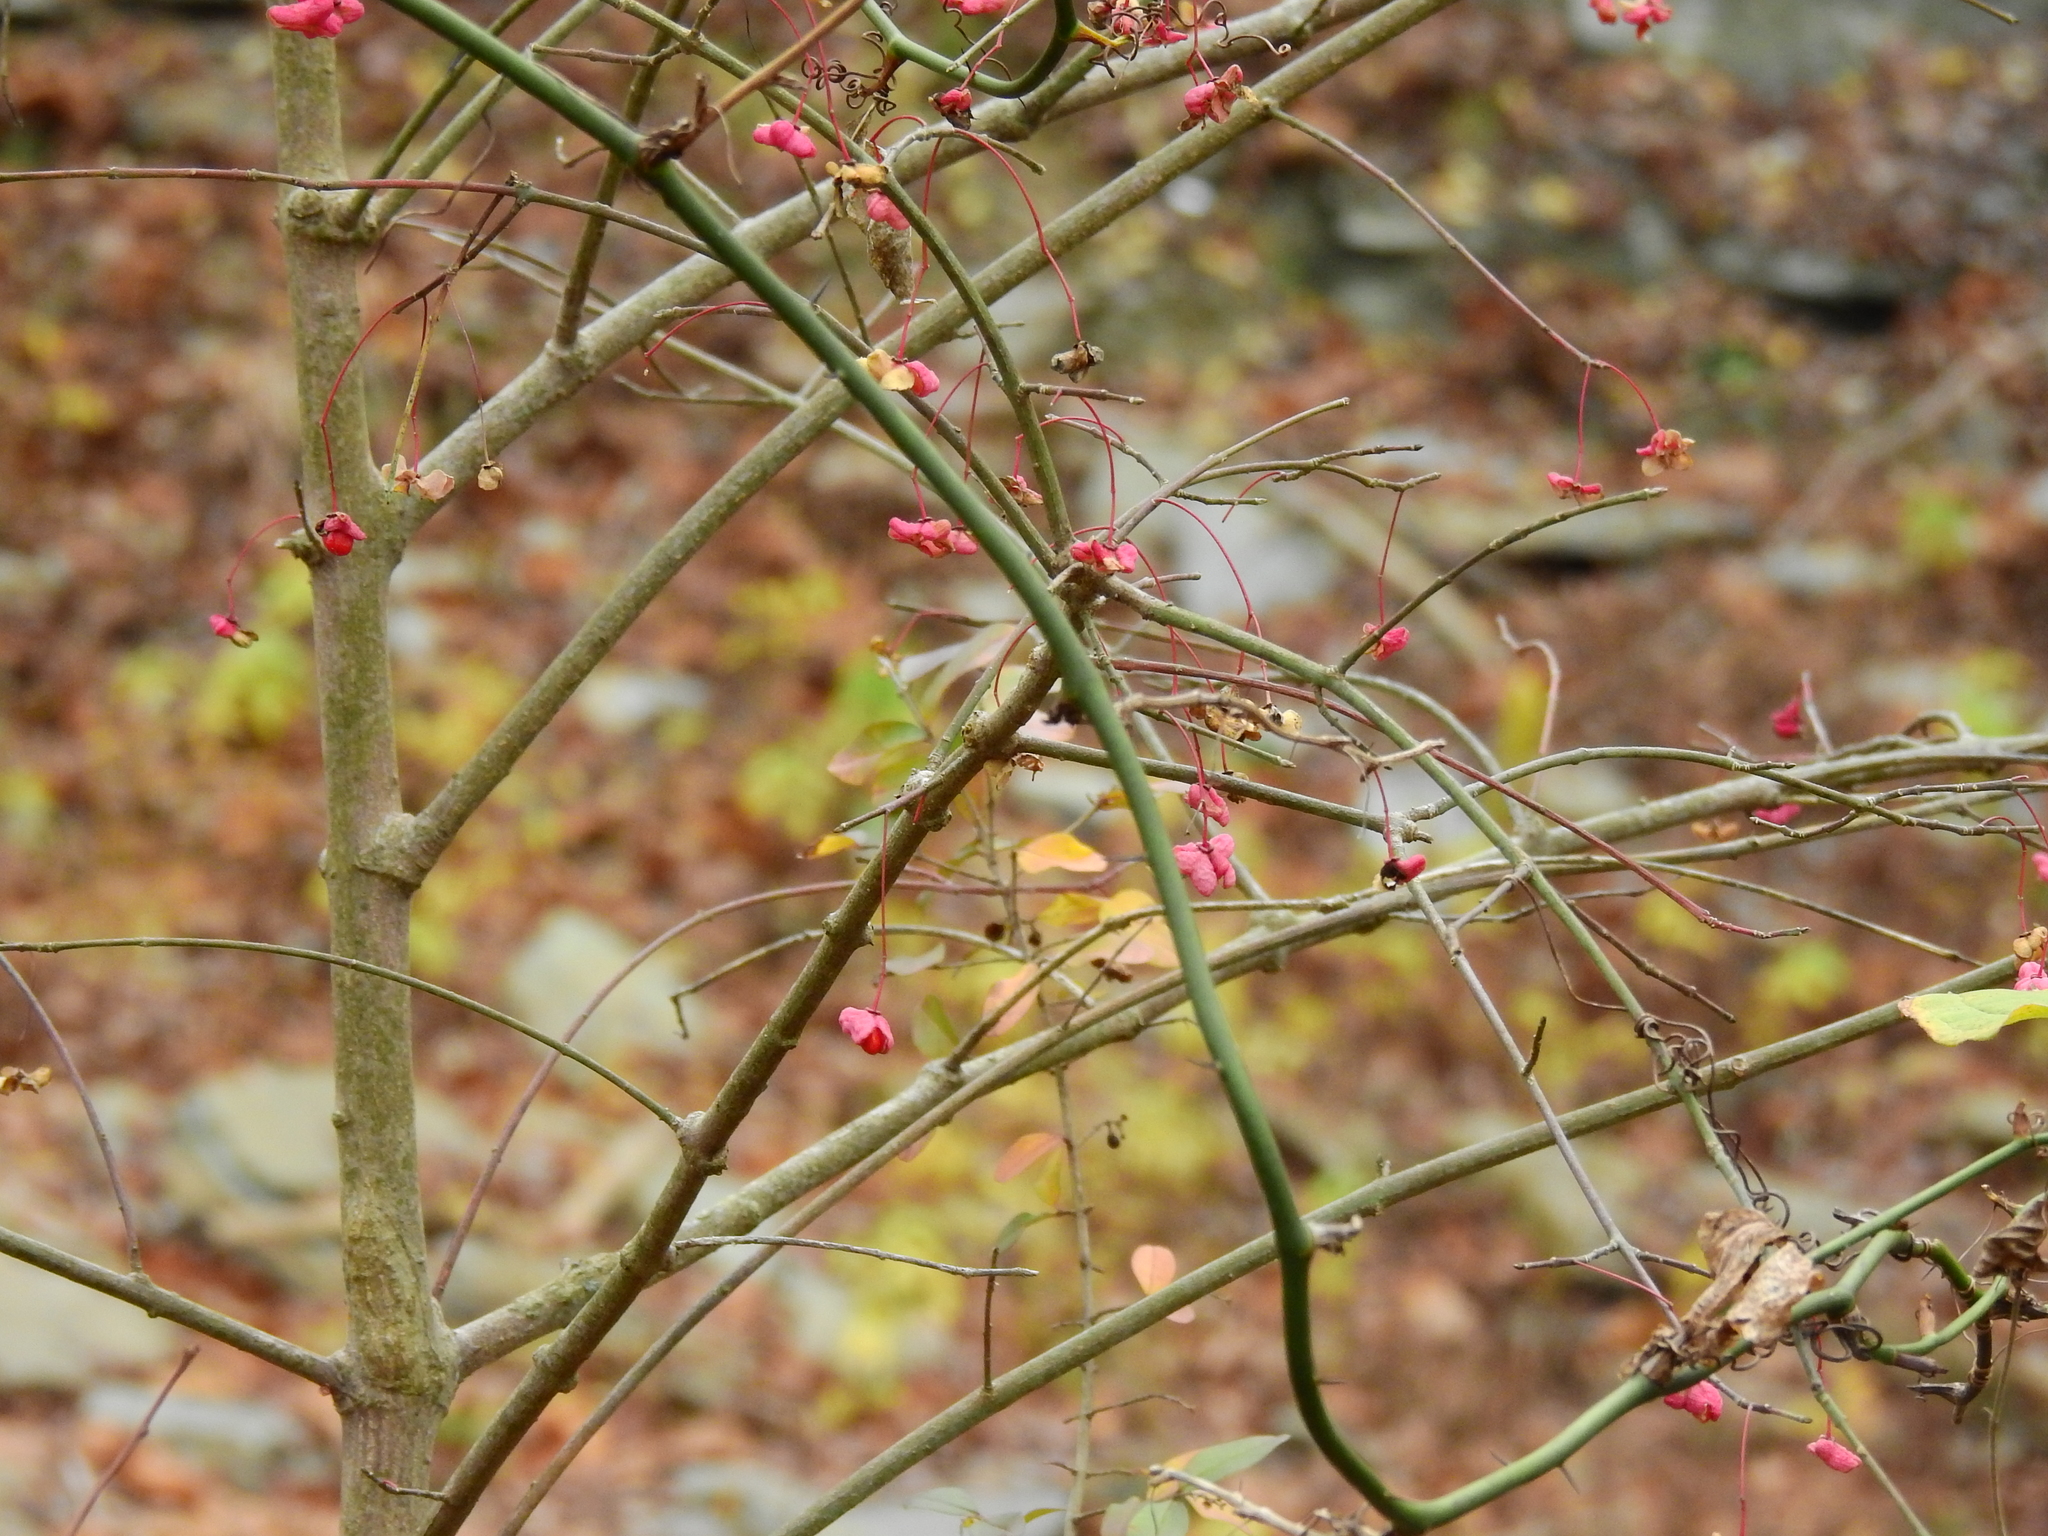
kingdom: Plantae
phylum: Tracheophyta
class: Magnoliopsida
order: Celastrales
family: Celastraceae
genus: Euonymus
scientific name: Euonymus atropurpureus
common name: Eastern wahoo
